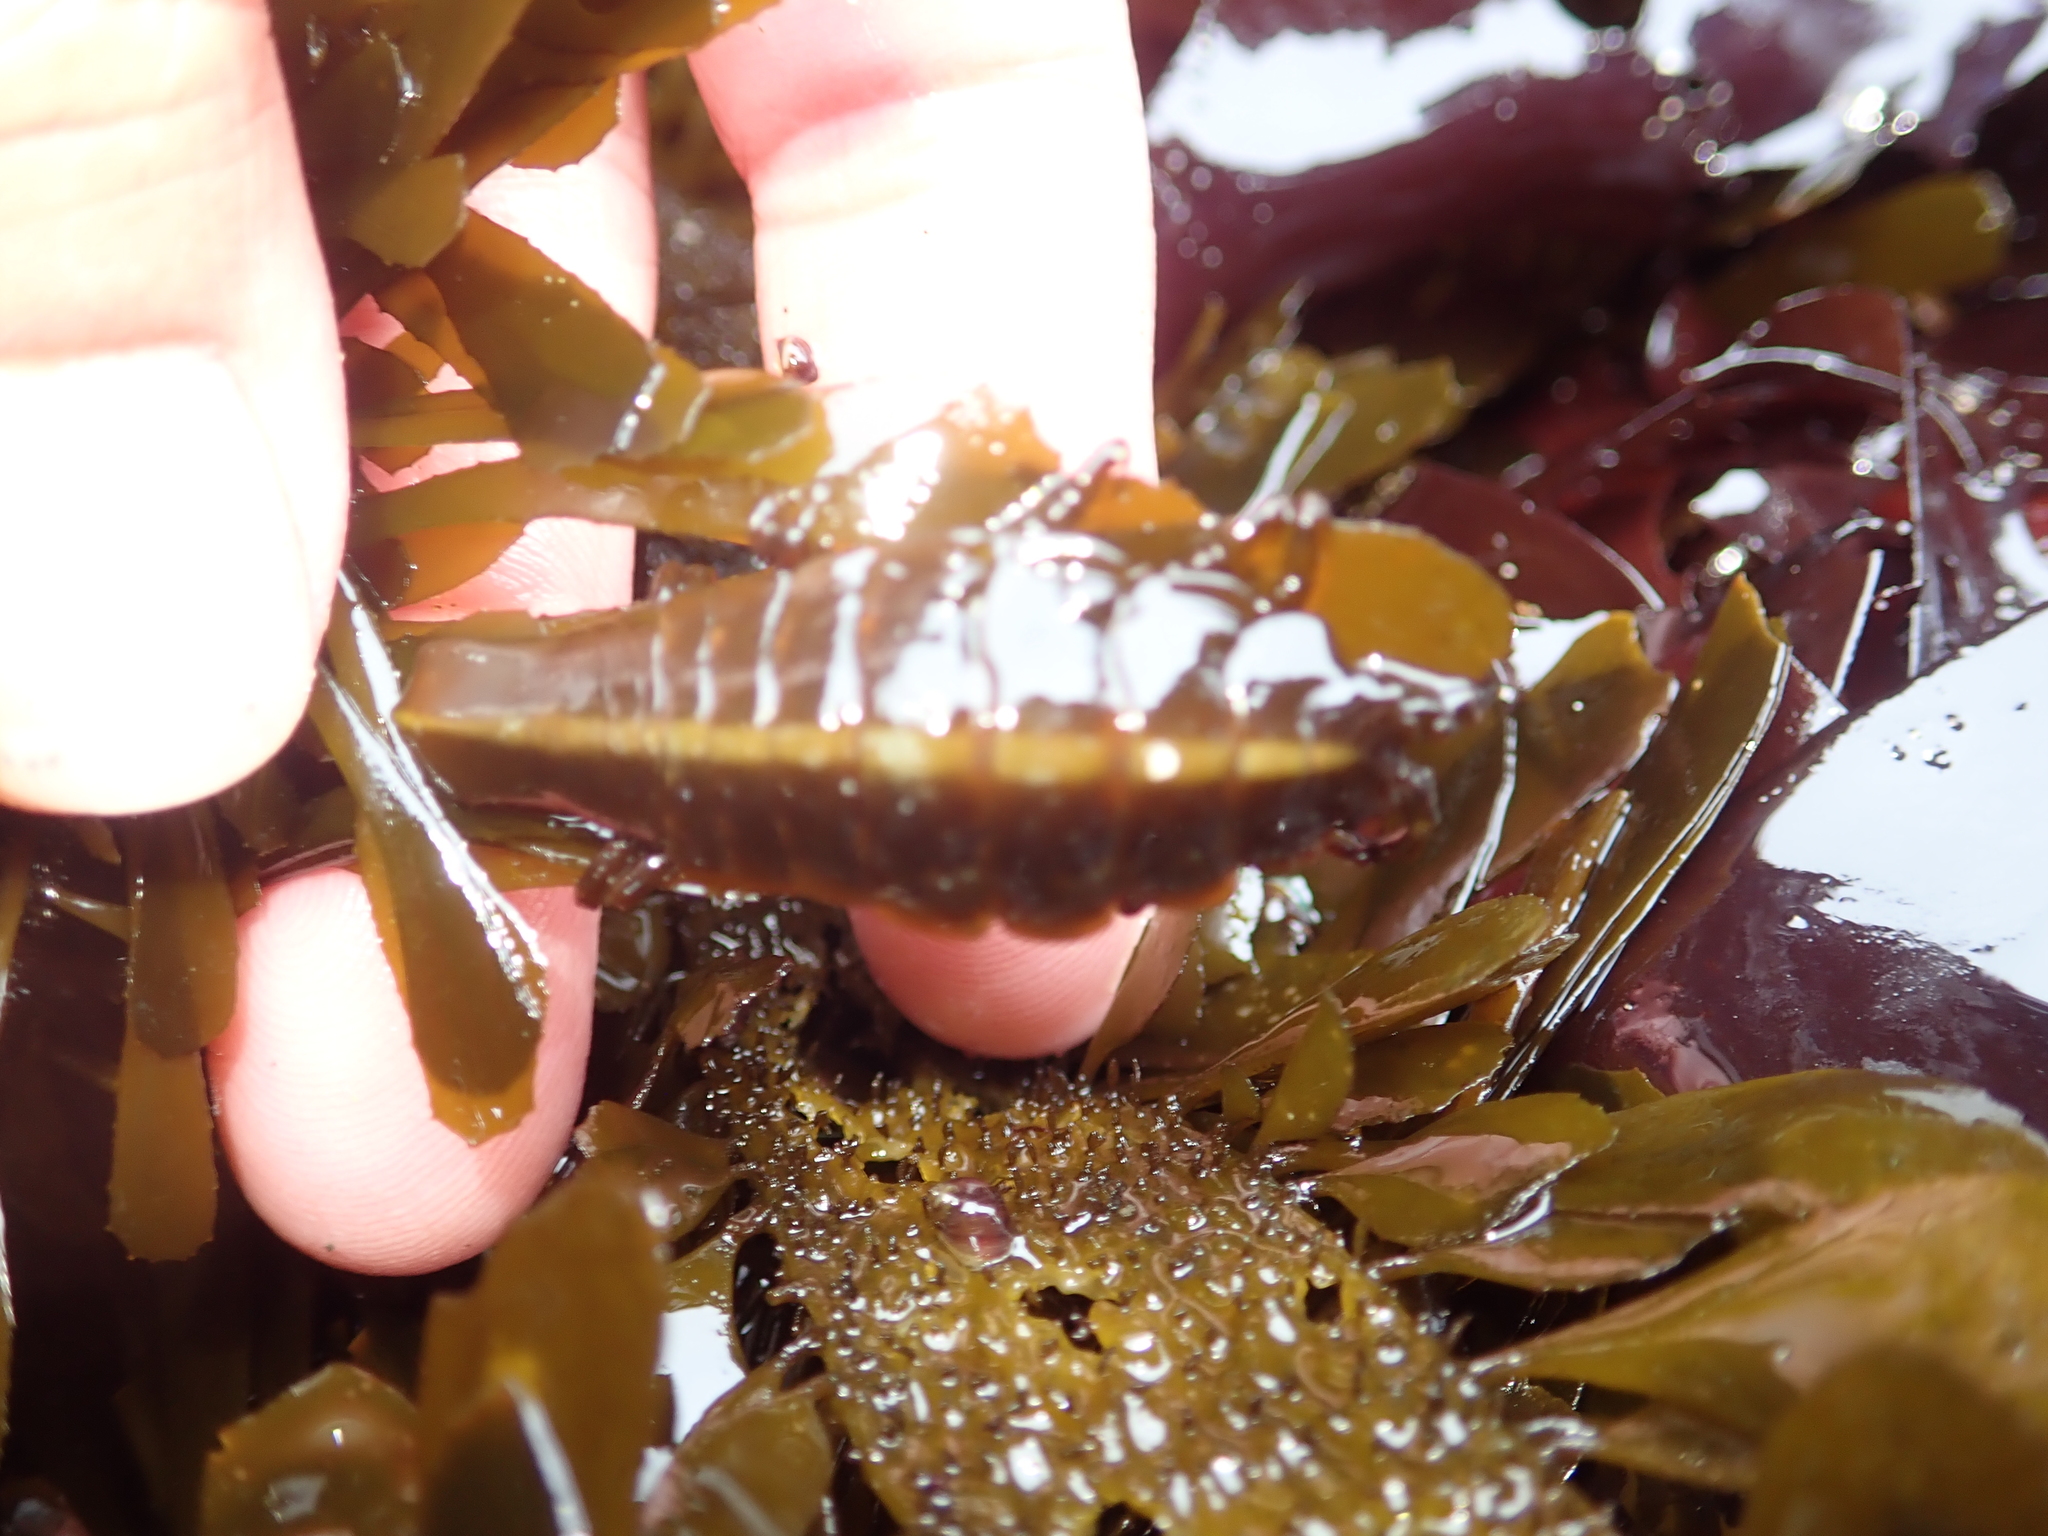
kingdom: Animalia
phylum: Arthropoda
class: Malacostraca
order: Isopoda
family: Idoteidae
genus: Pentidotea
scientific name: Pentidotea stenops
